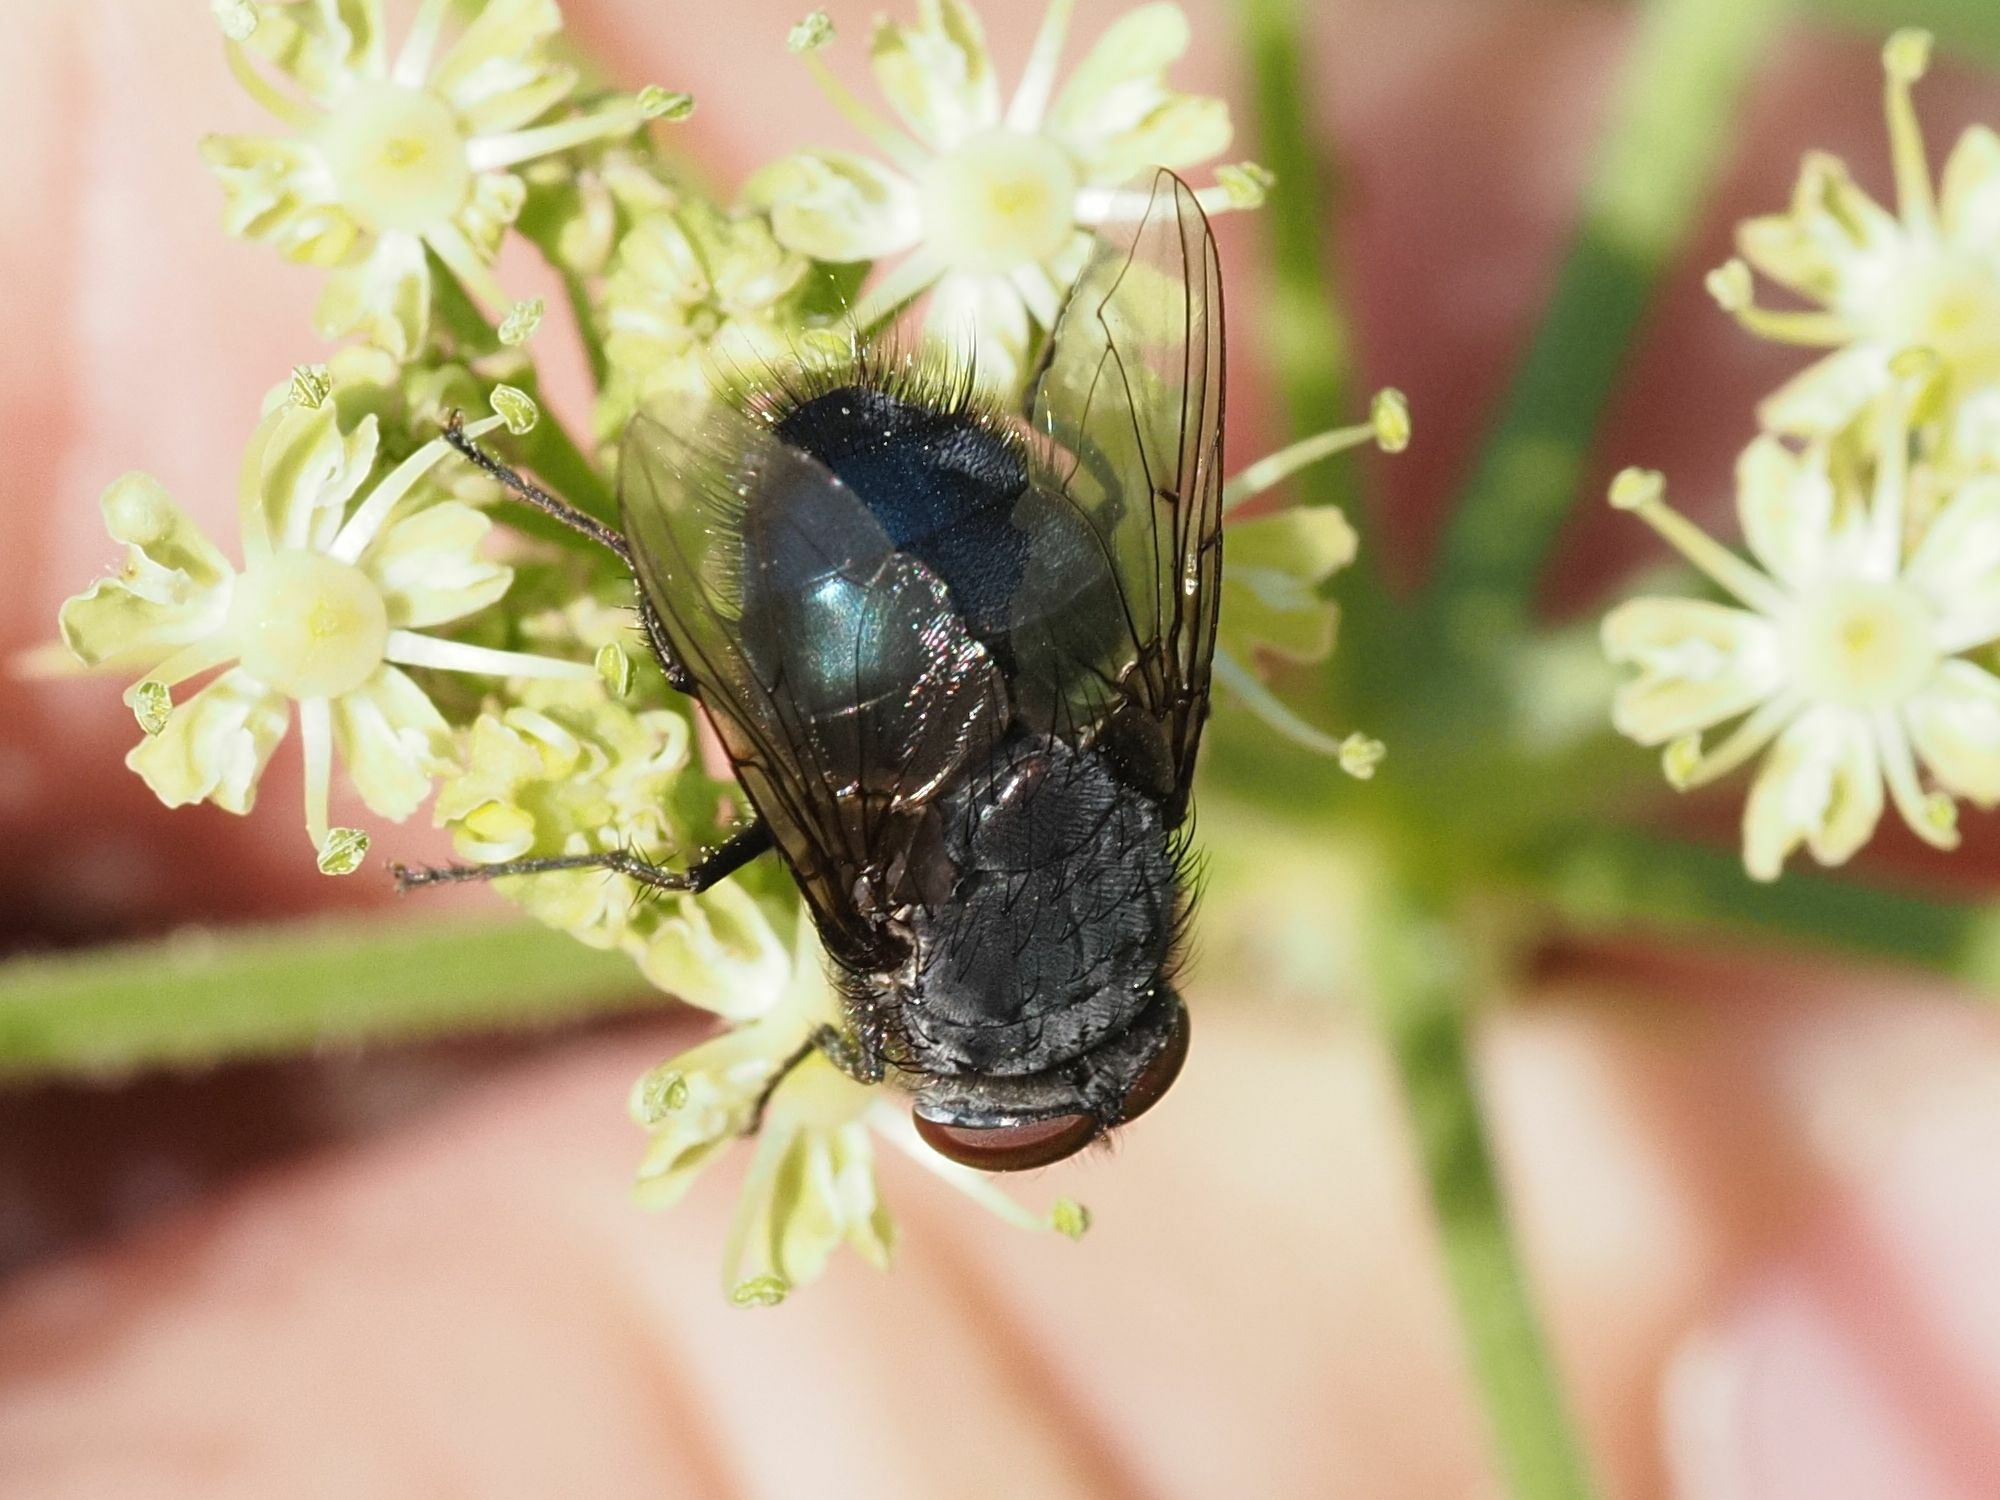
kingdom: Animalia
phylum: Arthropoda
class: Insecta
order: Diptera
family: Calliphoridae
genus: Calliphora
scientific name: Calliphora vomitoria
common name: Blue bottle fly
